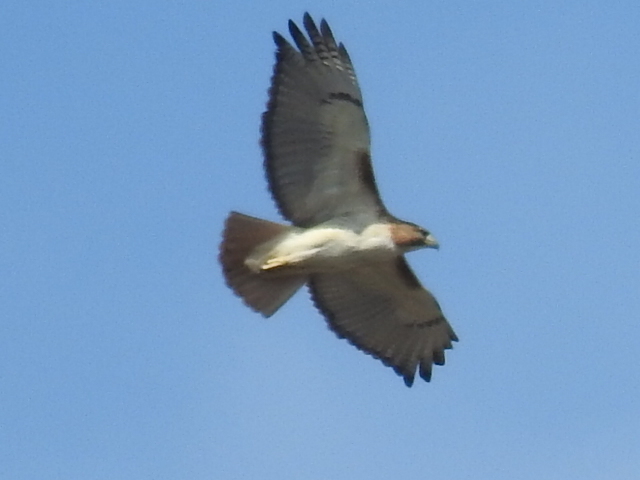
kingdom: Animalia
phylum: Chordata
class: Aves
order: Accipitriformes
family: Accipitridae
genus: Buteo
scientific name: Buteo jamaicensis
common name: Red-tailed hawk
